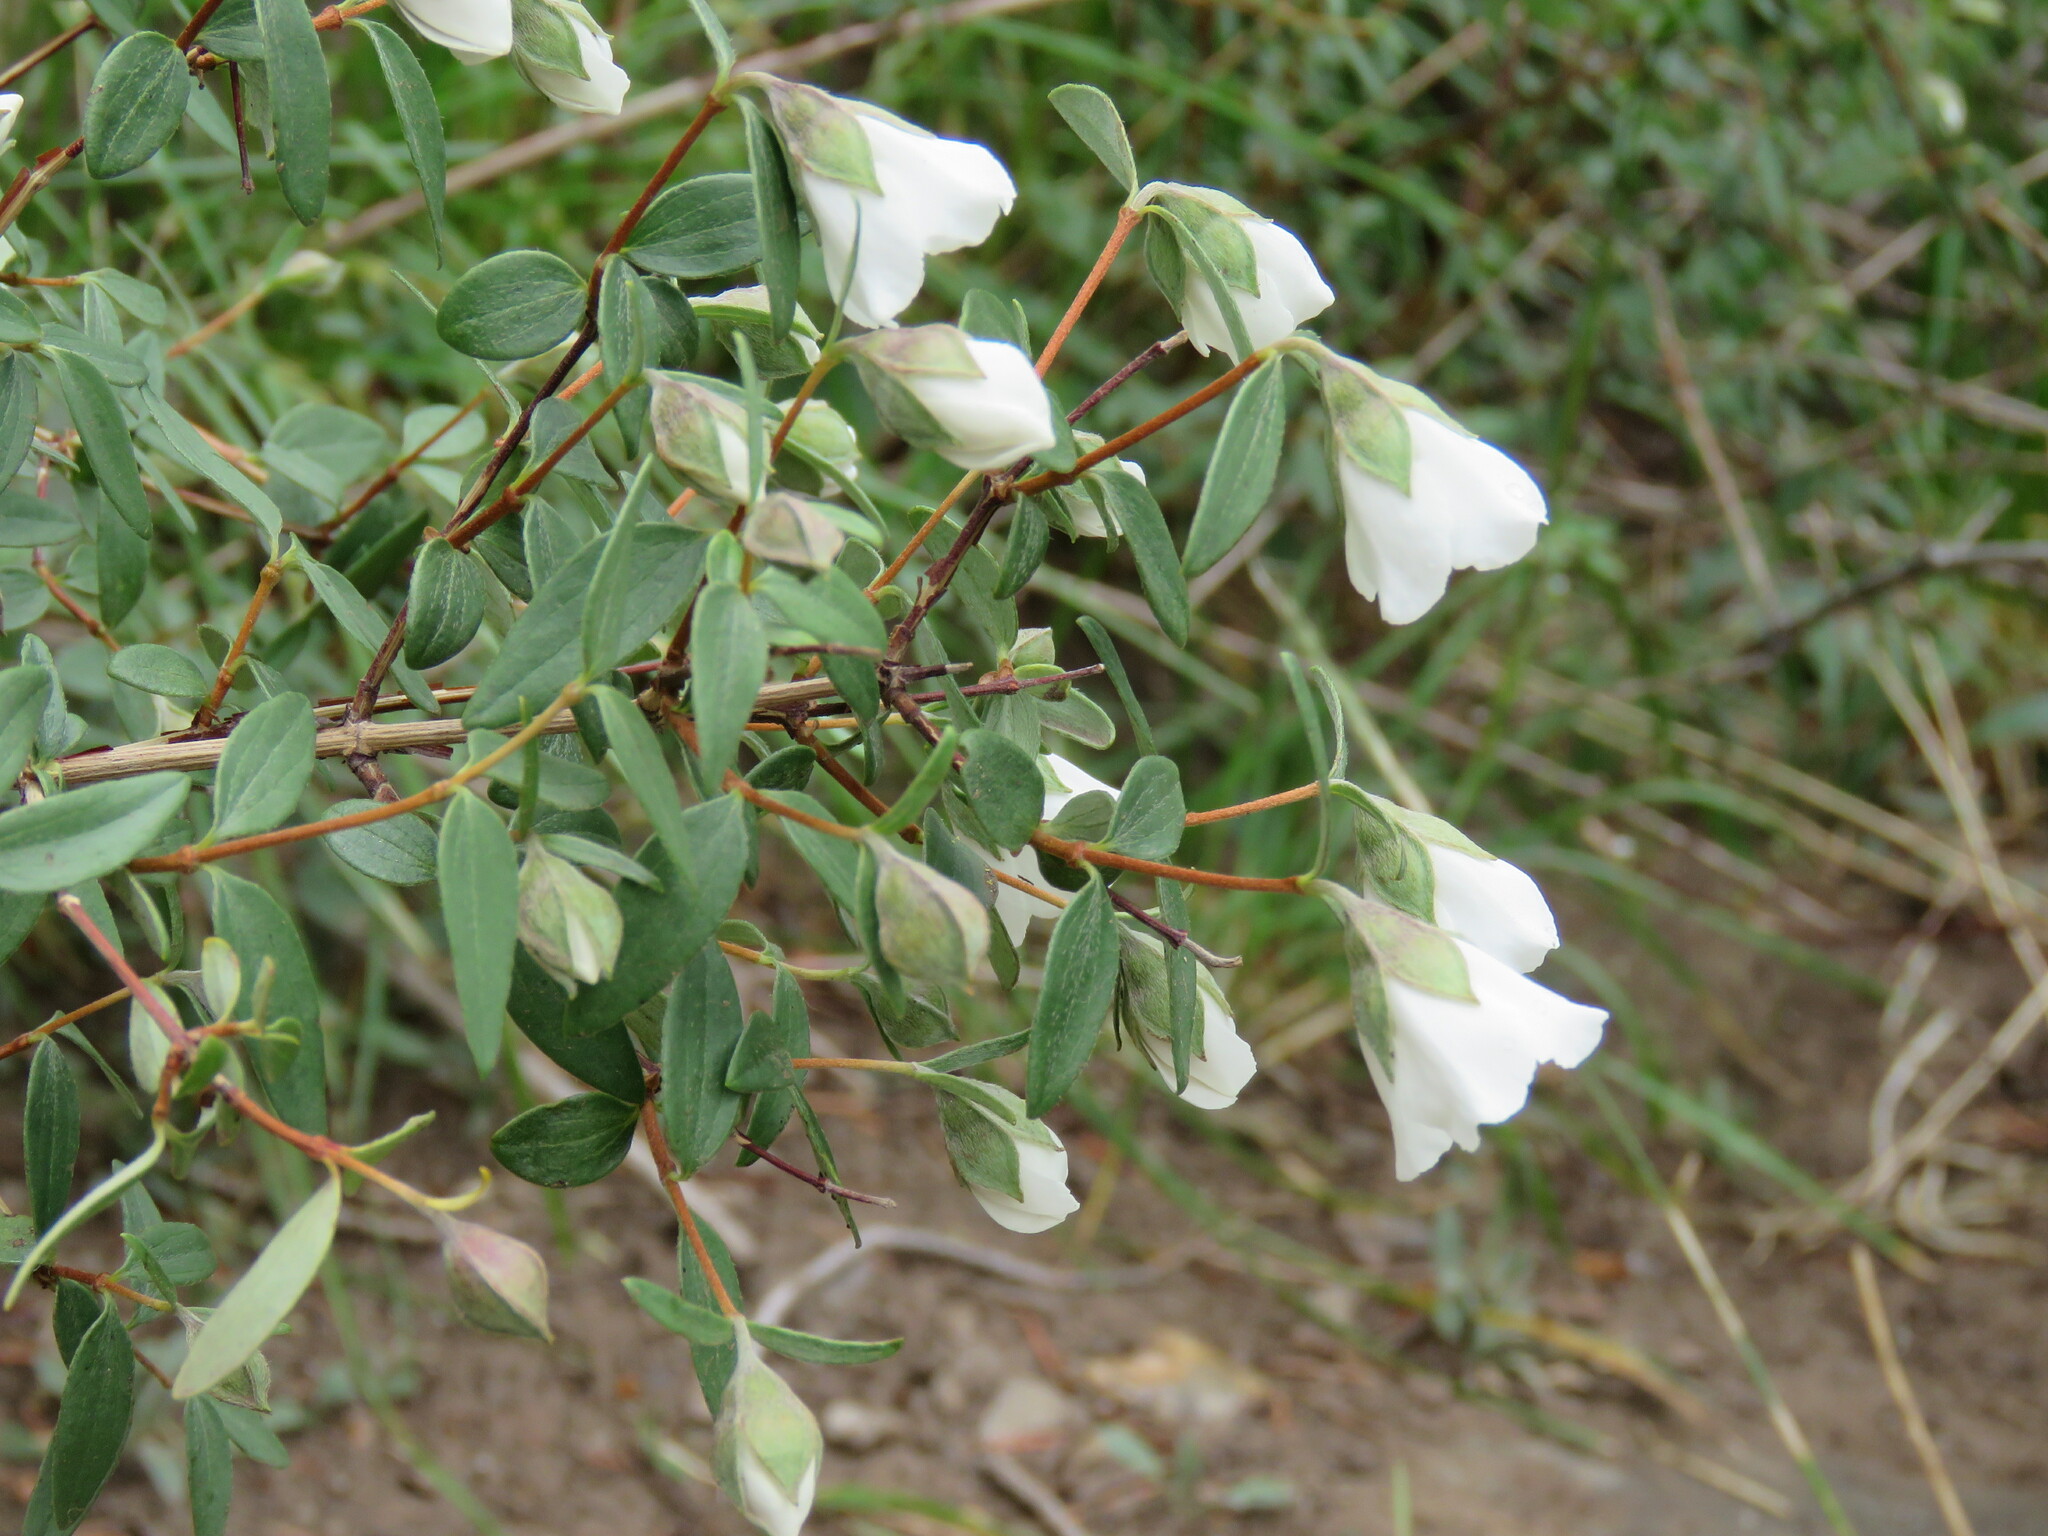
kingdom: Plantae
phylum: Tracheophyta
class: Magnoliopsida
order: Cornales
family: Hydrangeaceae
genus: Philadelphus
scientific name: Philadelphus microphyllus
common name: Desert mock orange
